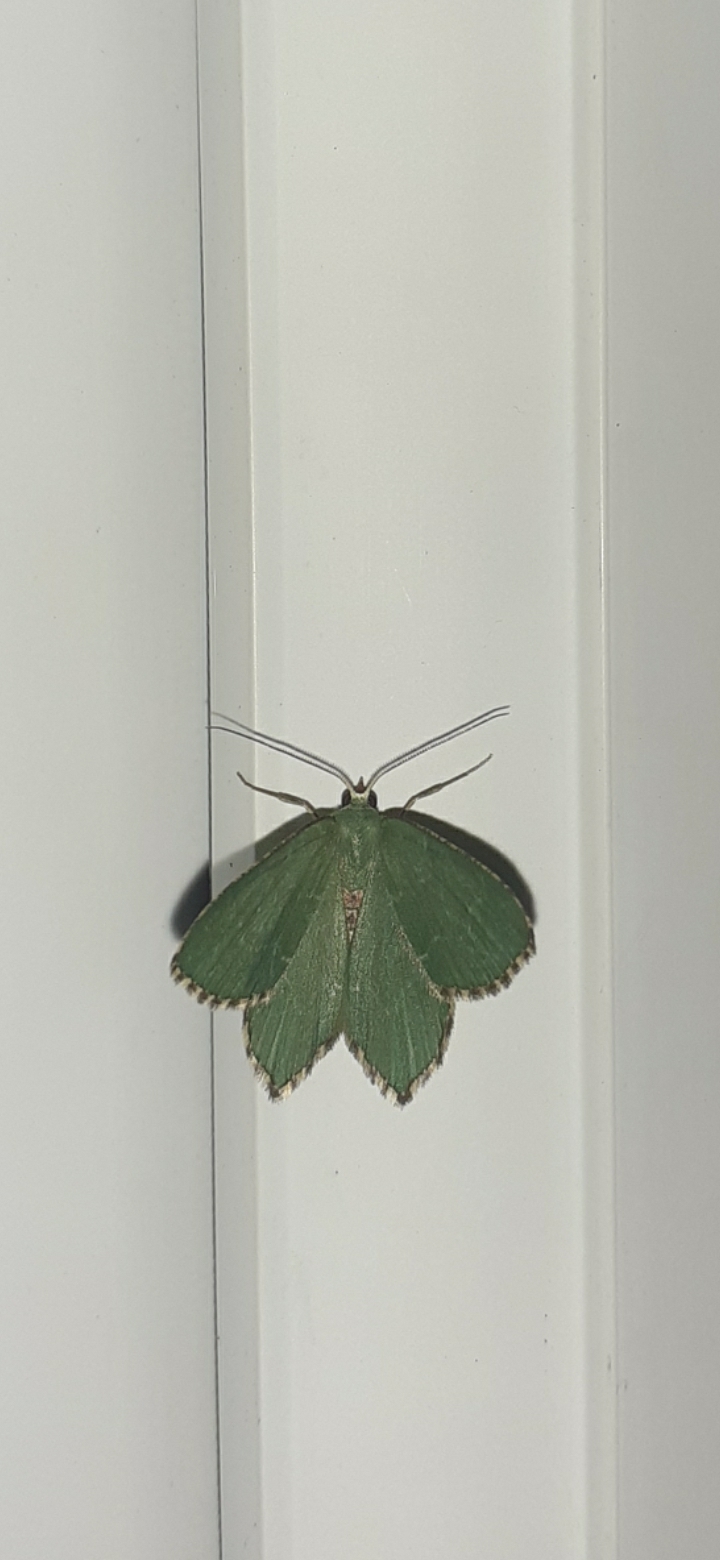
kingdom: Animalia
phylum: Arthropoda
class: Insecta
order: Lepidoptera
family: Geometridae
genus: Hemithea
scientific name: Hemithea aestivaria
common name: Common emerald
